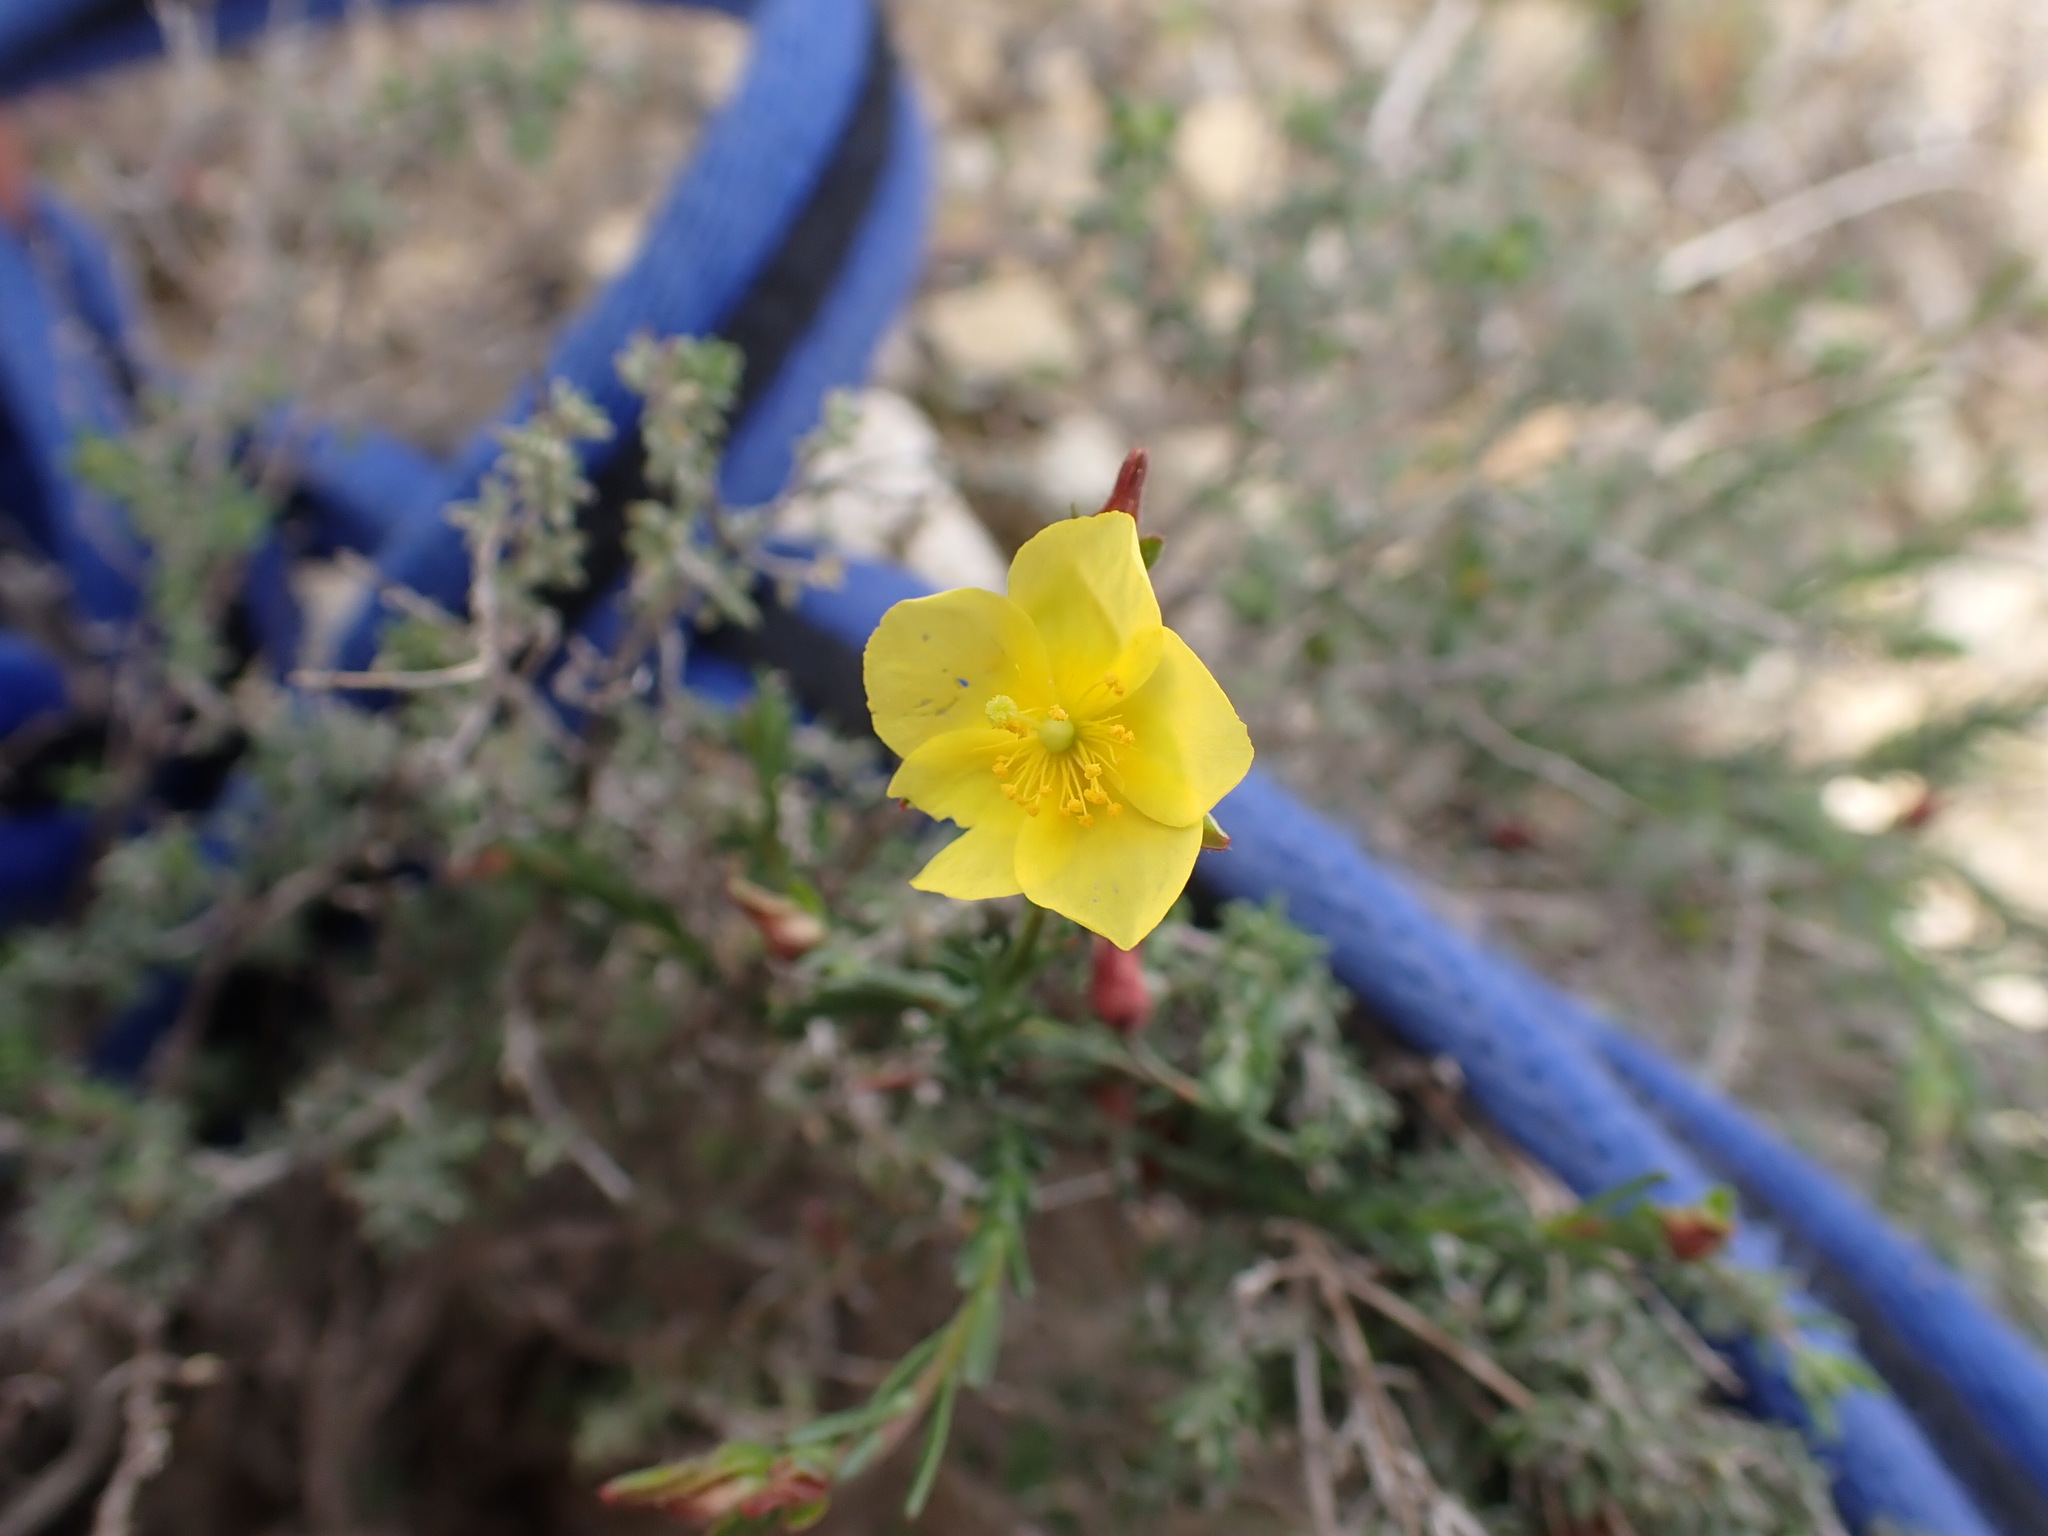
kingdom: Plantae
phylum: Tracheophyta
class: Magnoliopsida
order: Malvales
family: Cistaceae
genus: Fumana
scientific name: Fumana ericifolia
